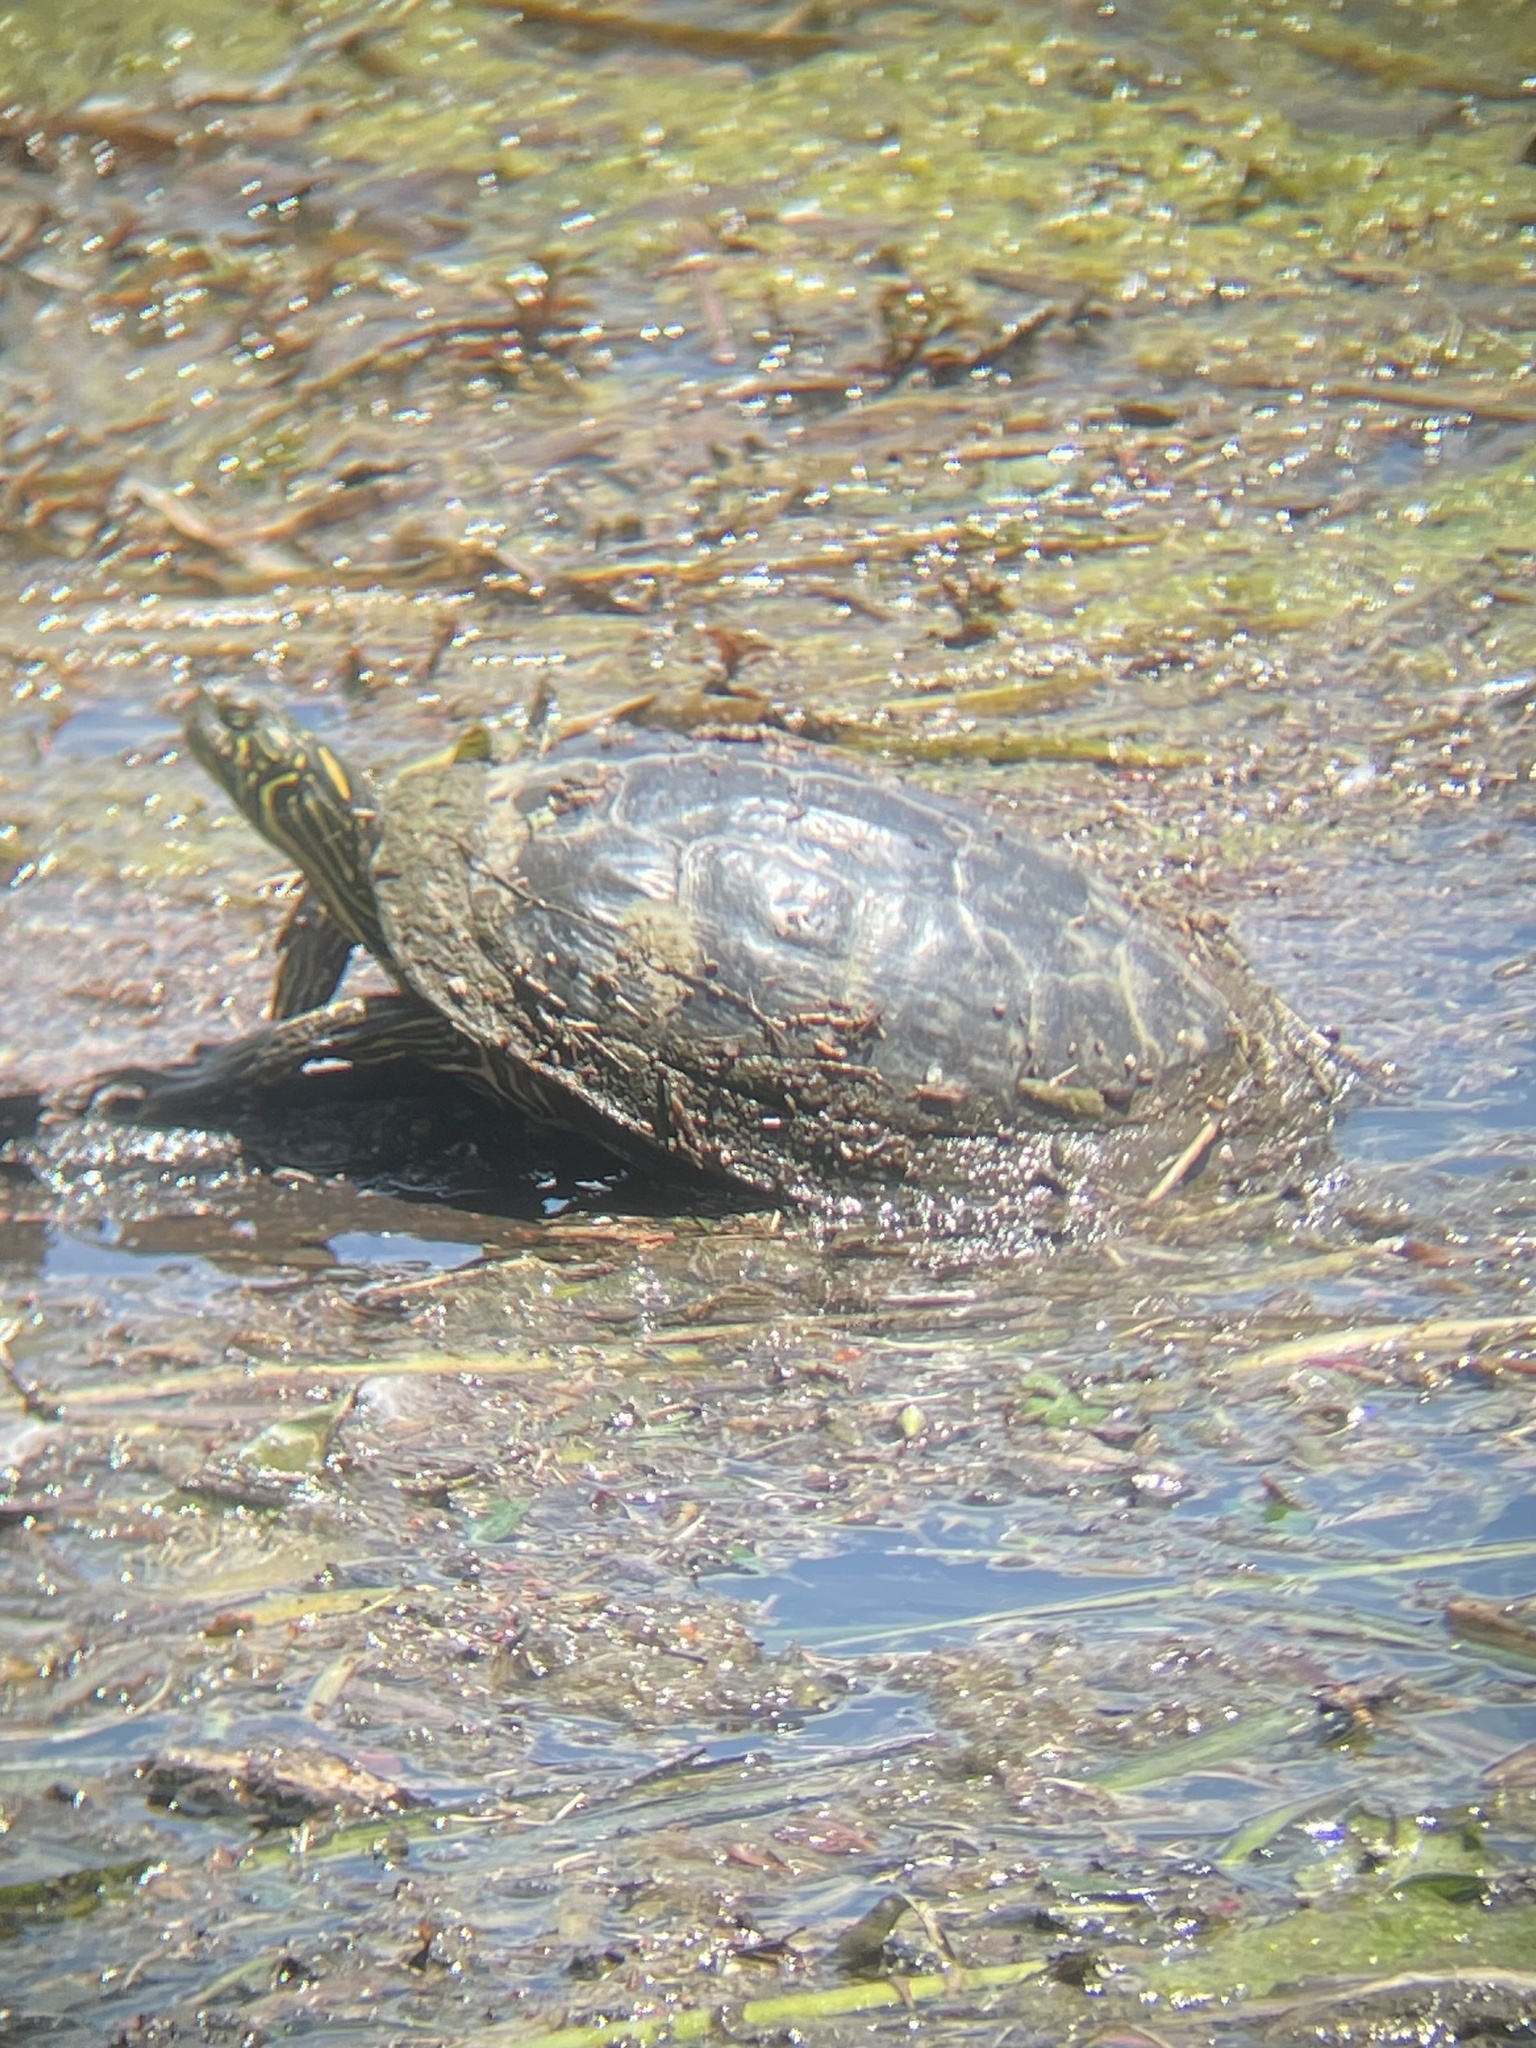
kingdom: Animalia
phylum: Chordata
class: Testudines
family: Emydidae
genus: Pseudemys
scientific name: Pseudemys texana
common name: Texas river cooter
